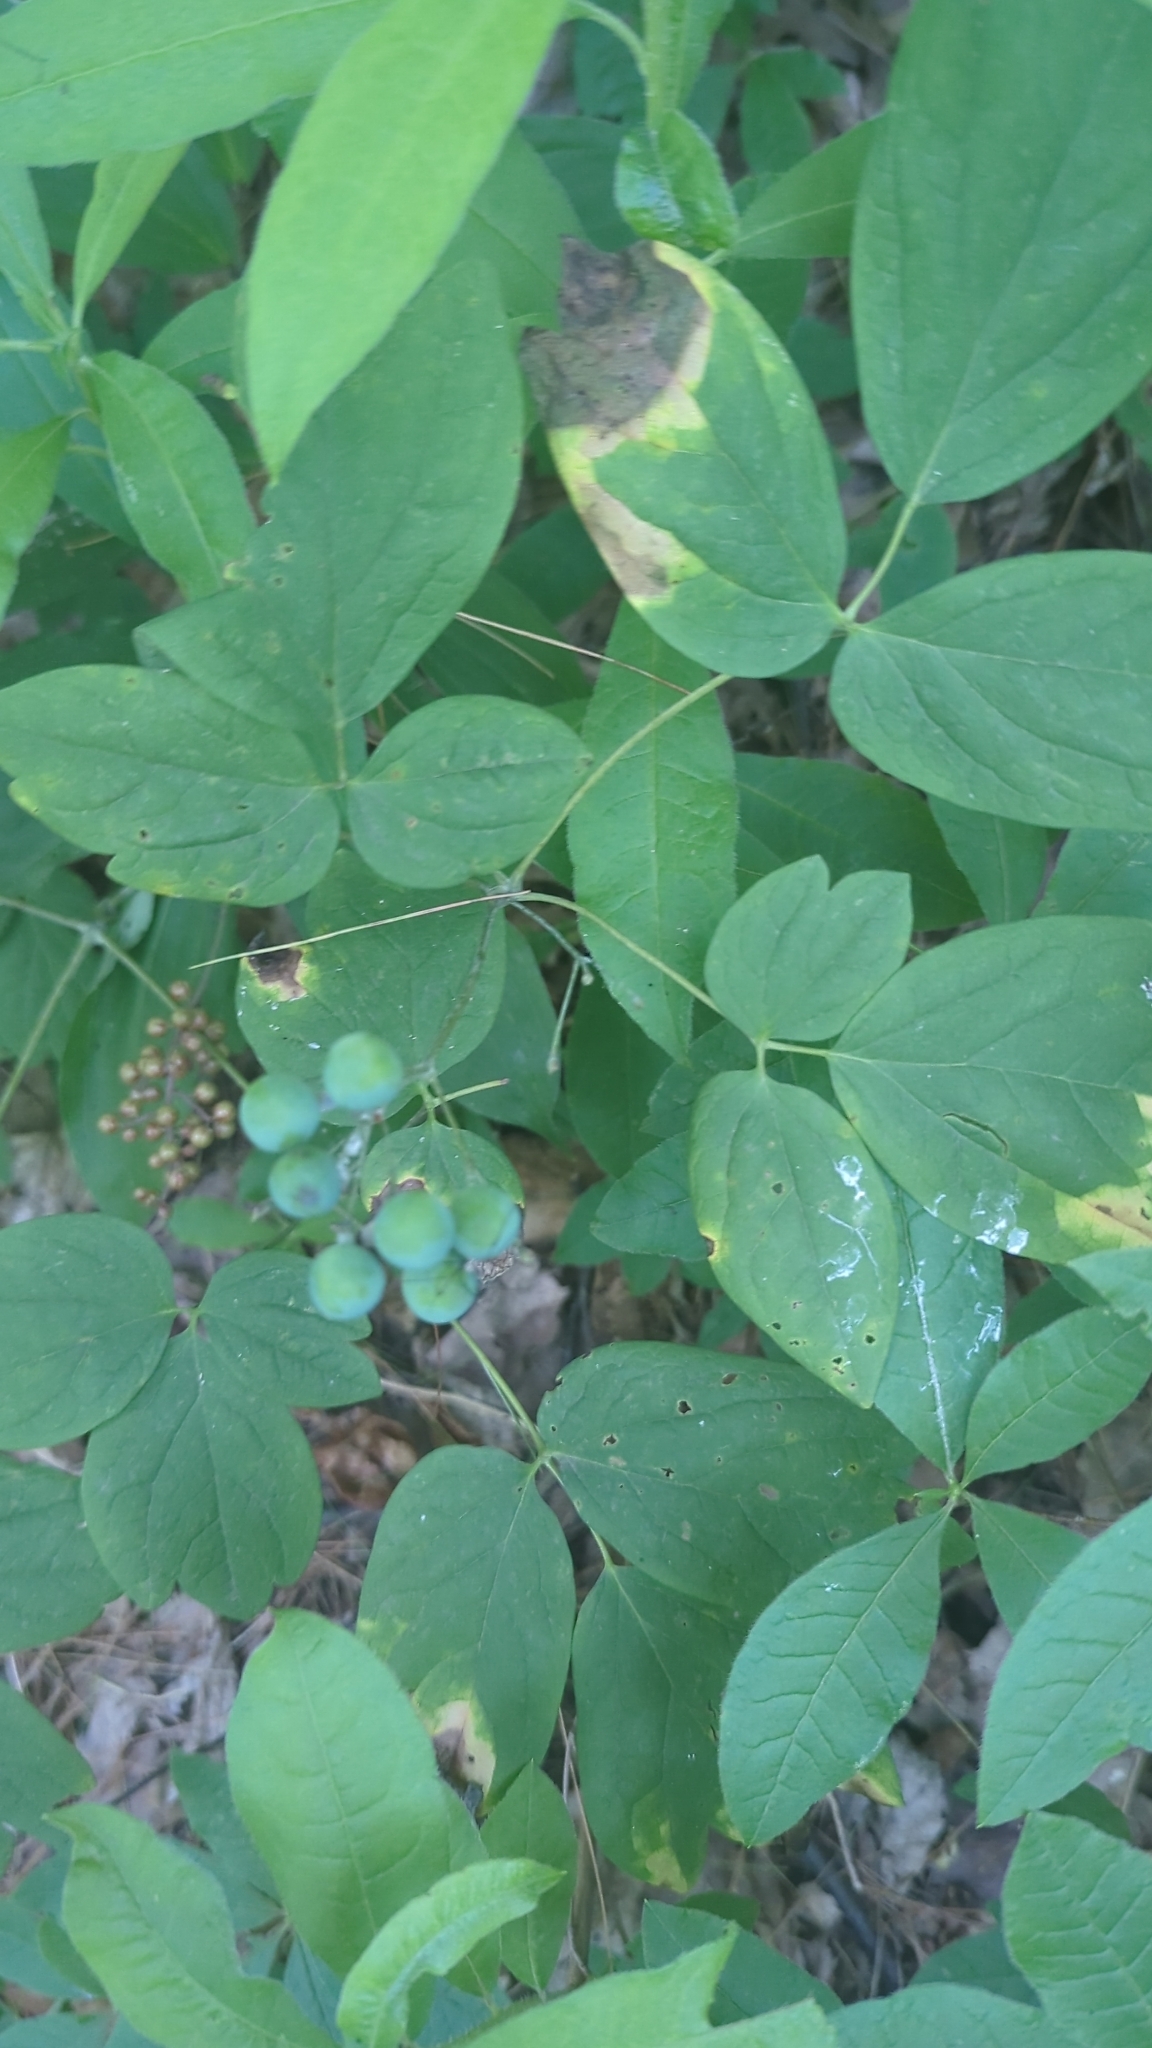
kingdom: Plantae
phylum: Tracheophyta
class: Magnoliopsida
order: Ranunculales
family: Berberidaceae
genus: Caulophyllum
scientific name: Caulophyllum thalictroides
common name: Blue cohosh
